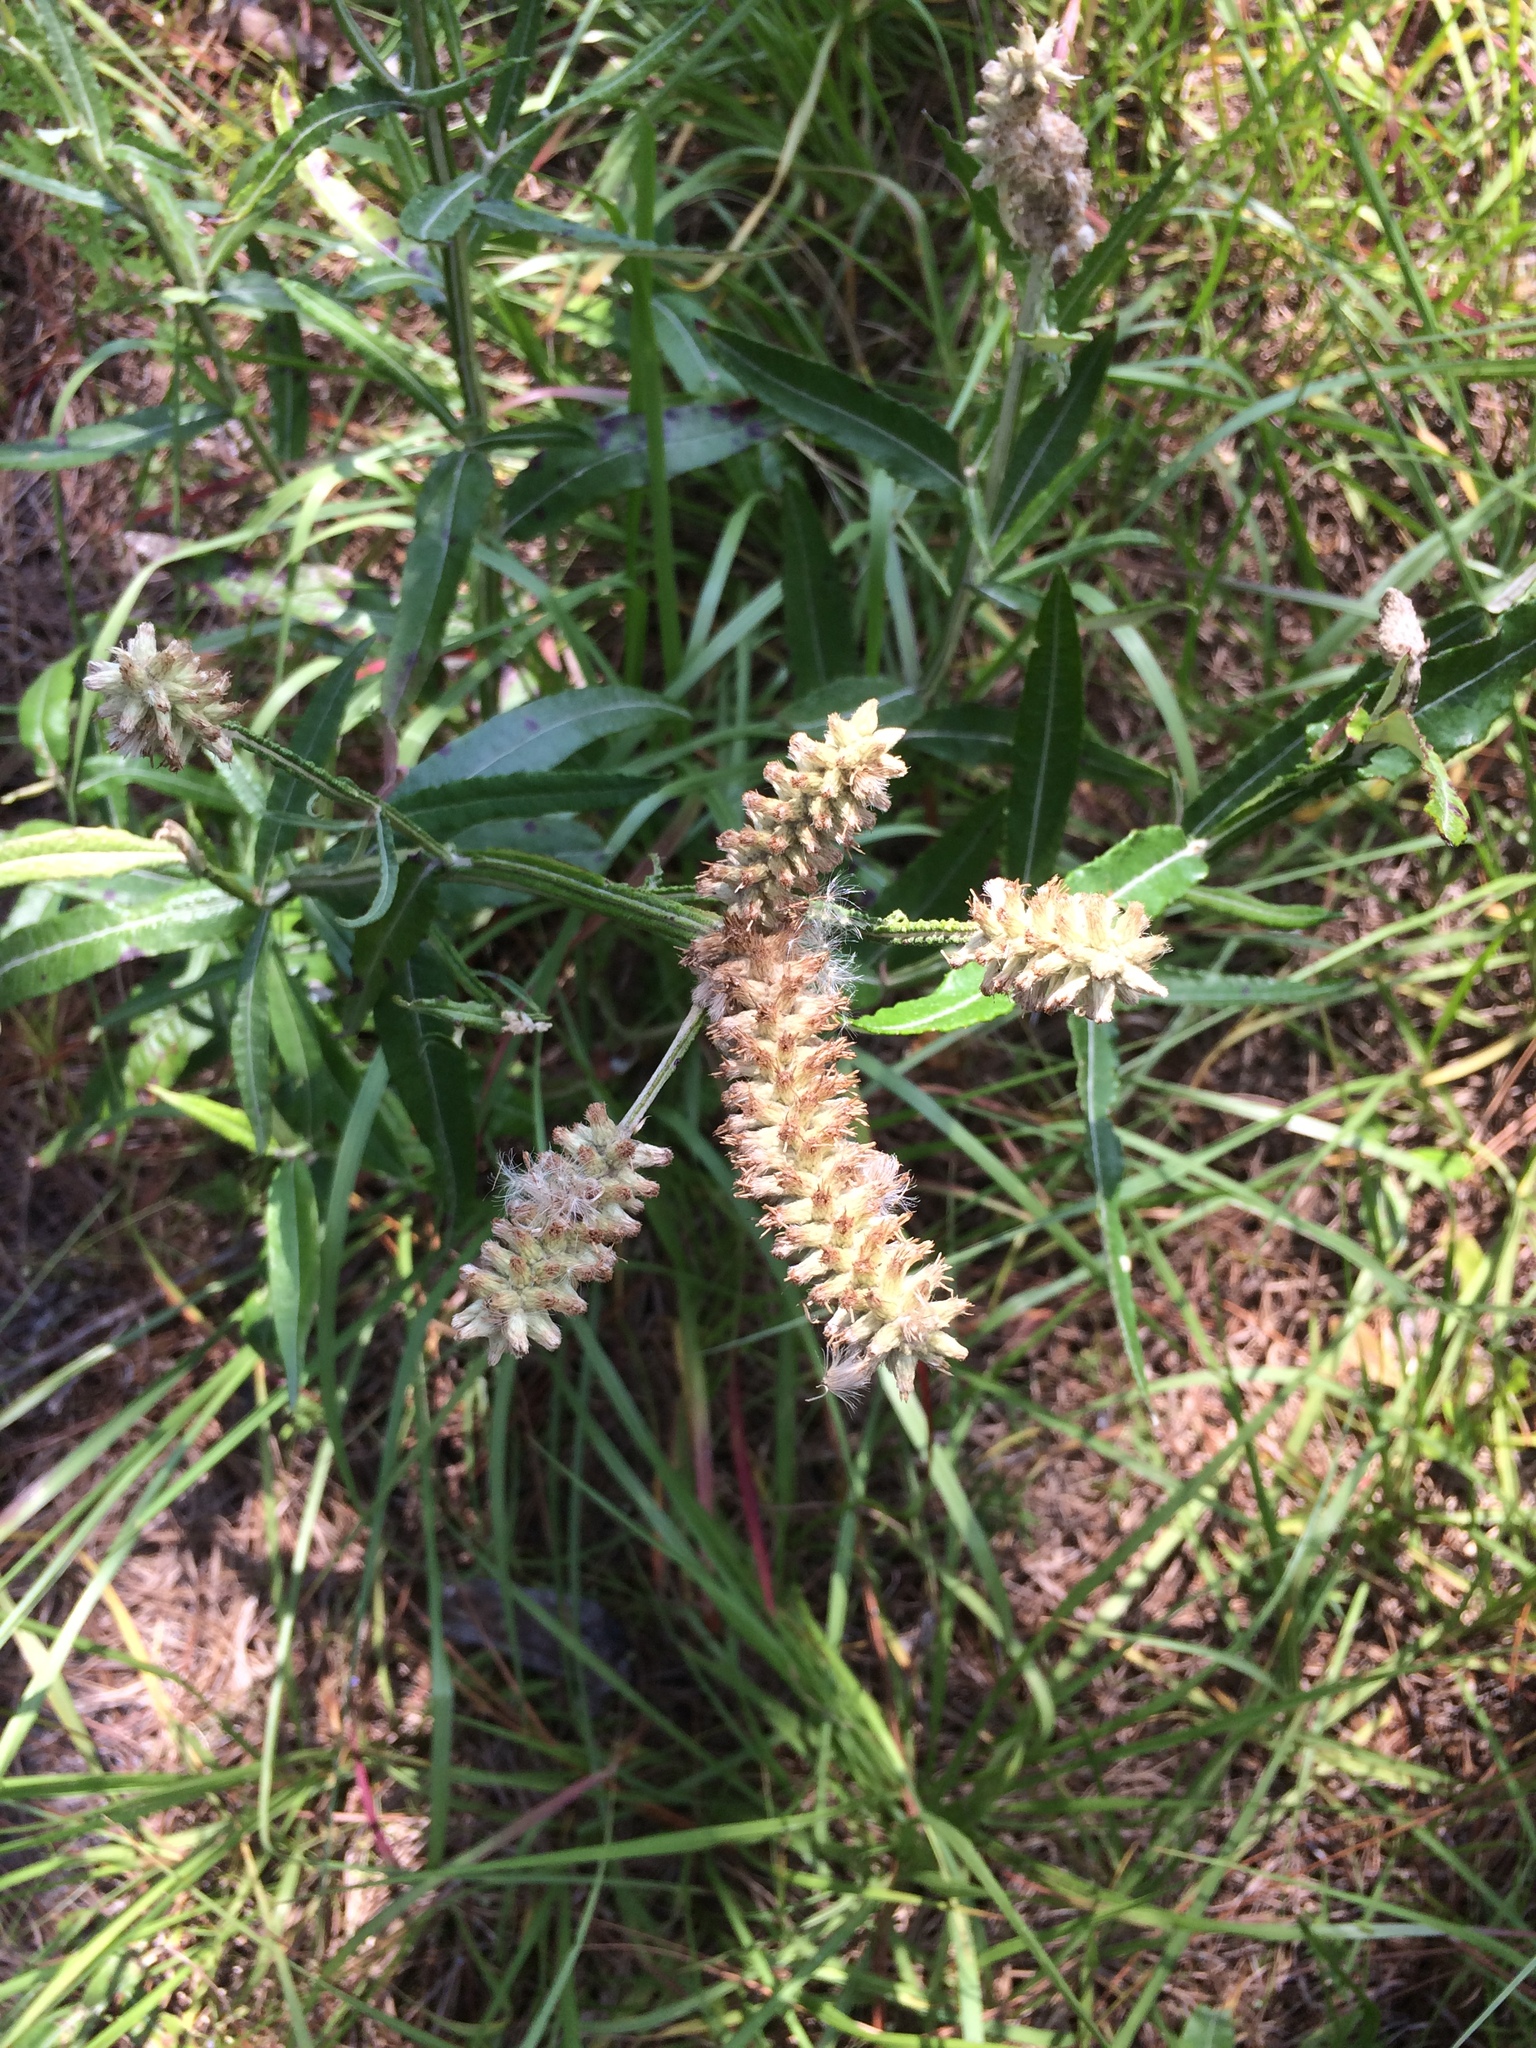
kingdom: Plantae
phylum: Tracheophyta
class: Magnoliopsida
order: Asterales
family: Asteraceae
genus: Pterocaulon
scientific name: Pterocaulon pycnostachyum
